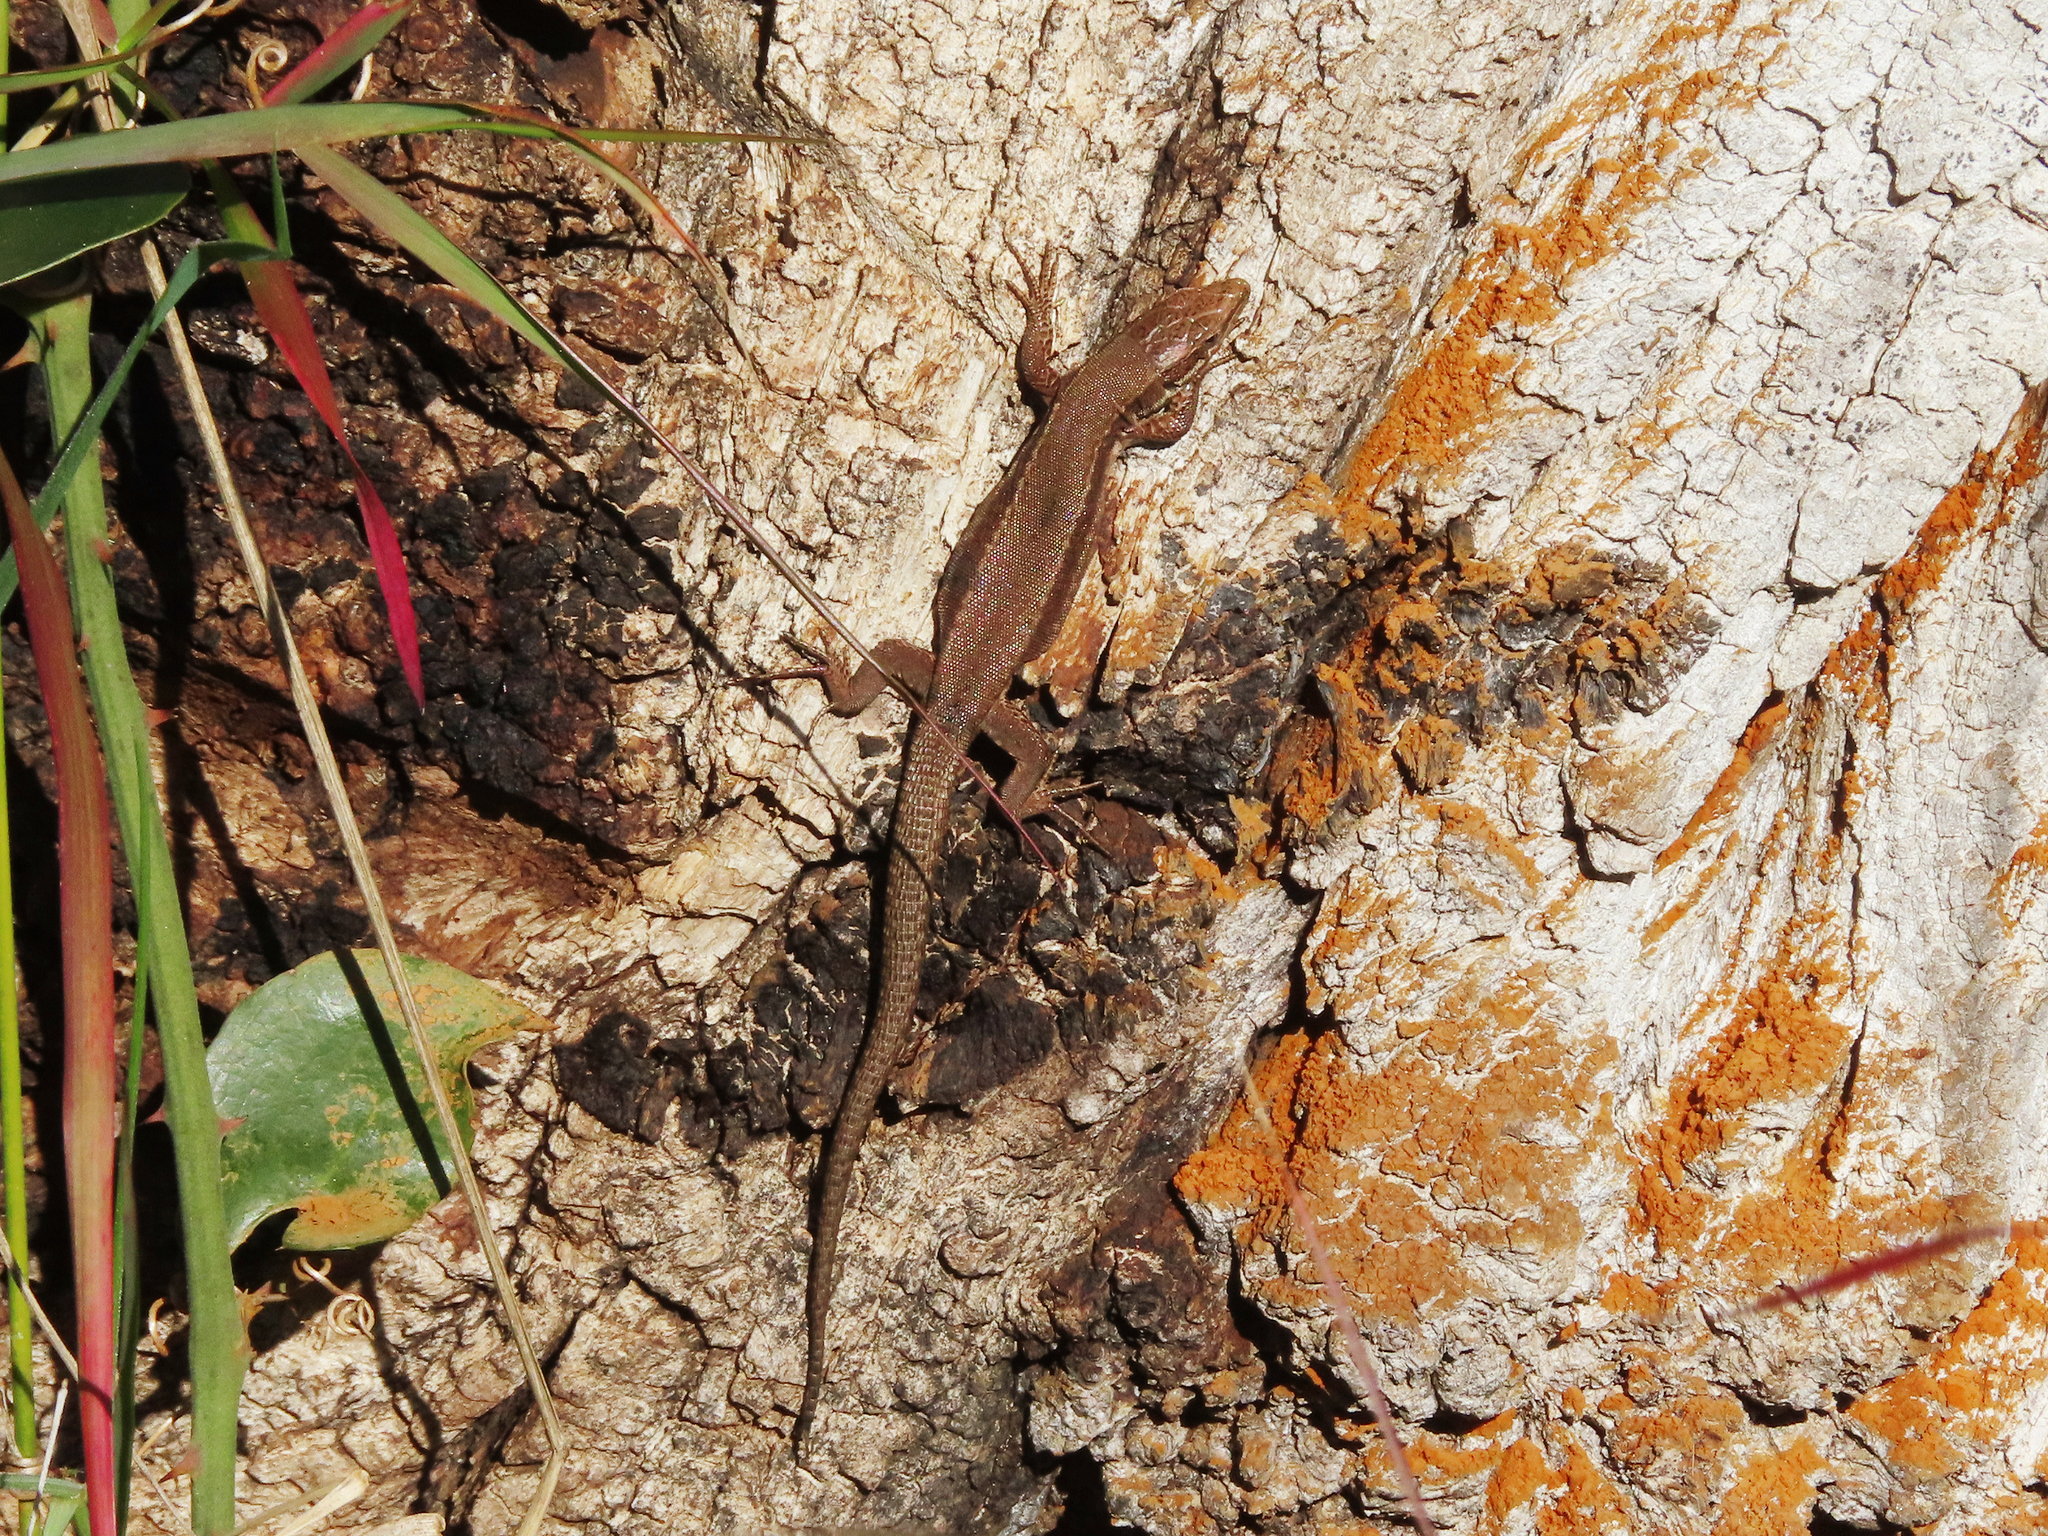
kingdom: Animalia
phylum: Chordata
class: Squamata
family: Lacertidae
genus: Podarcis
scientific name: Podarcis muralis
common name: Common wall lizard
